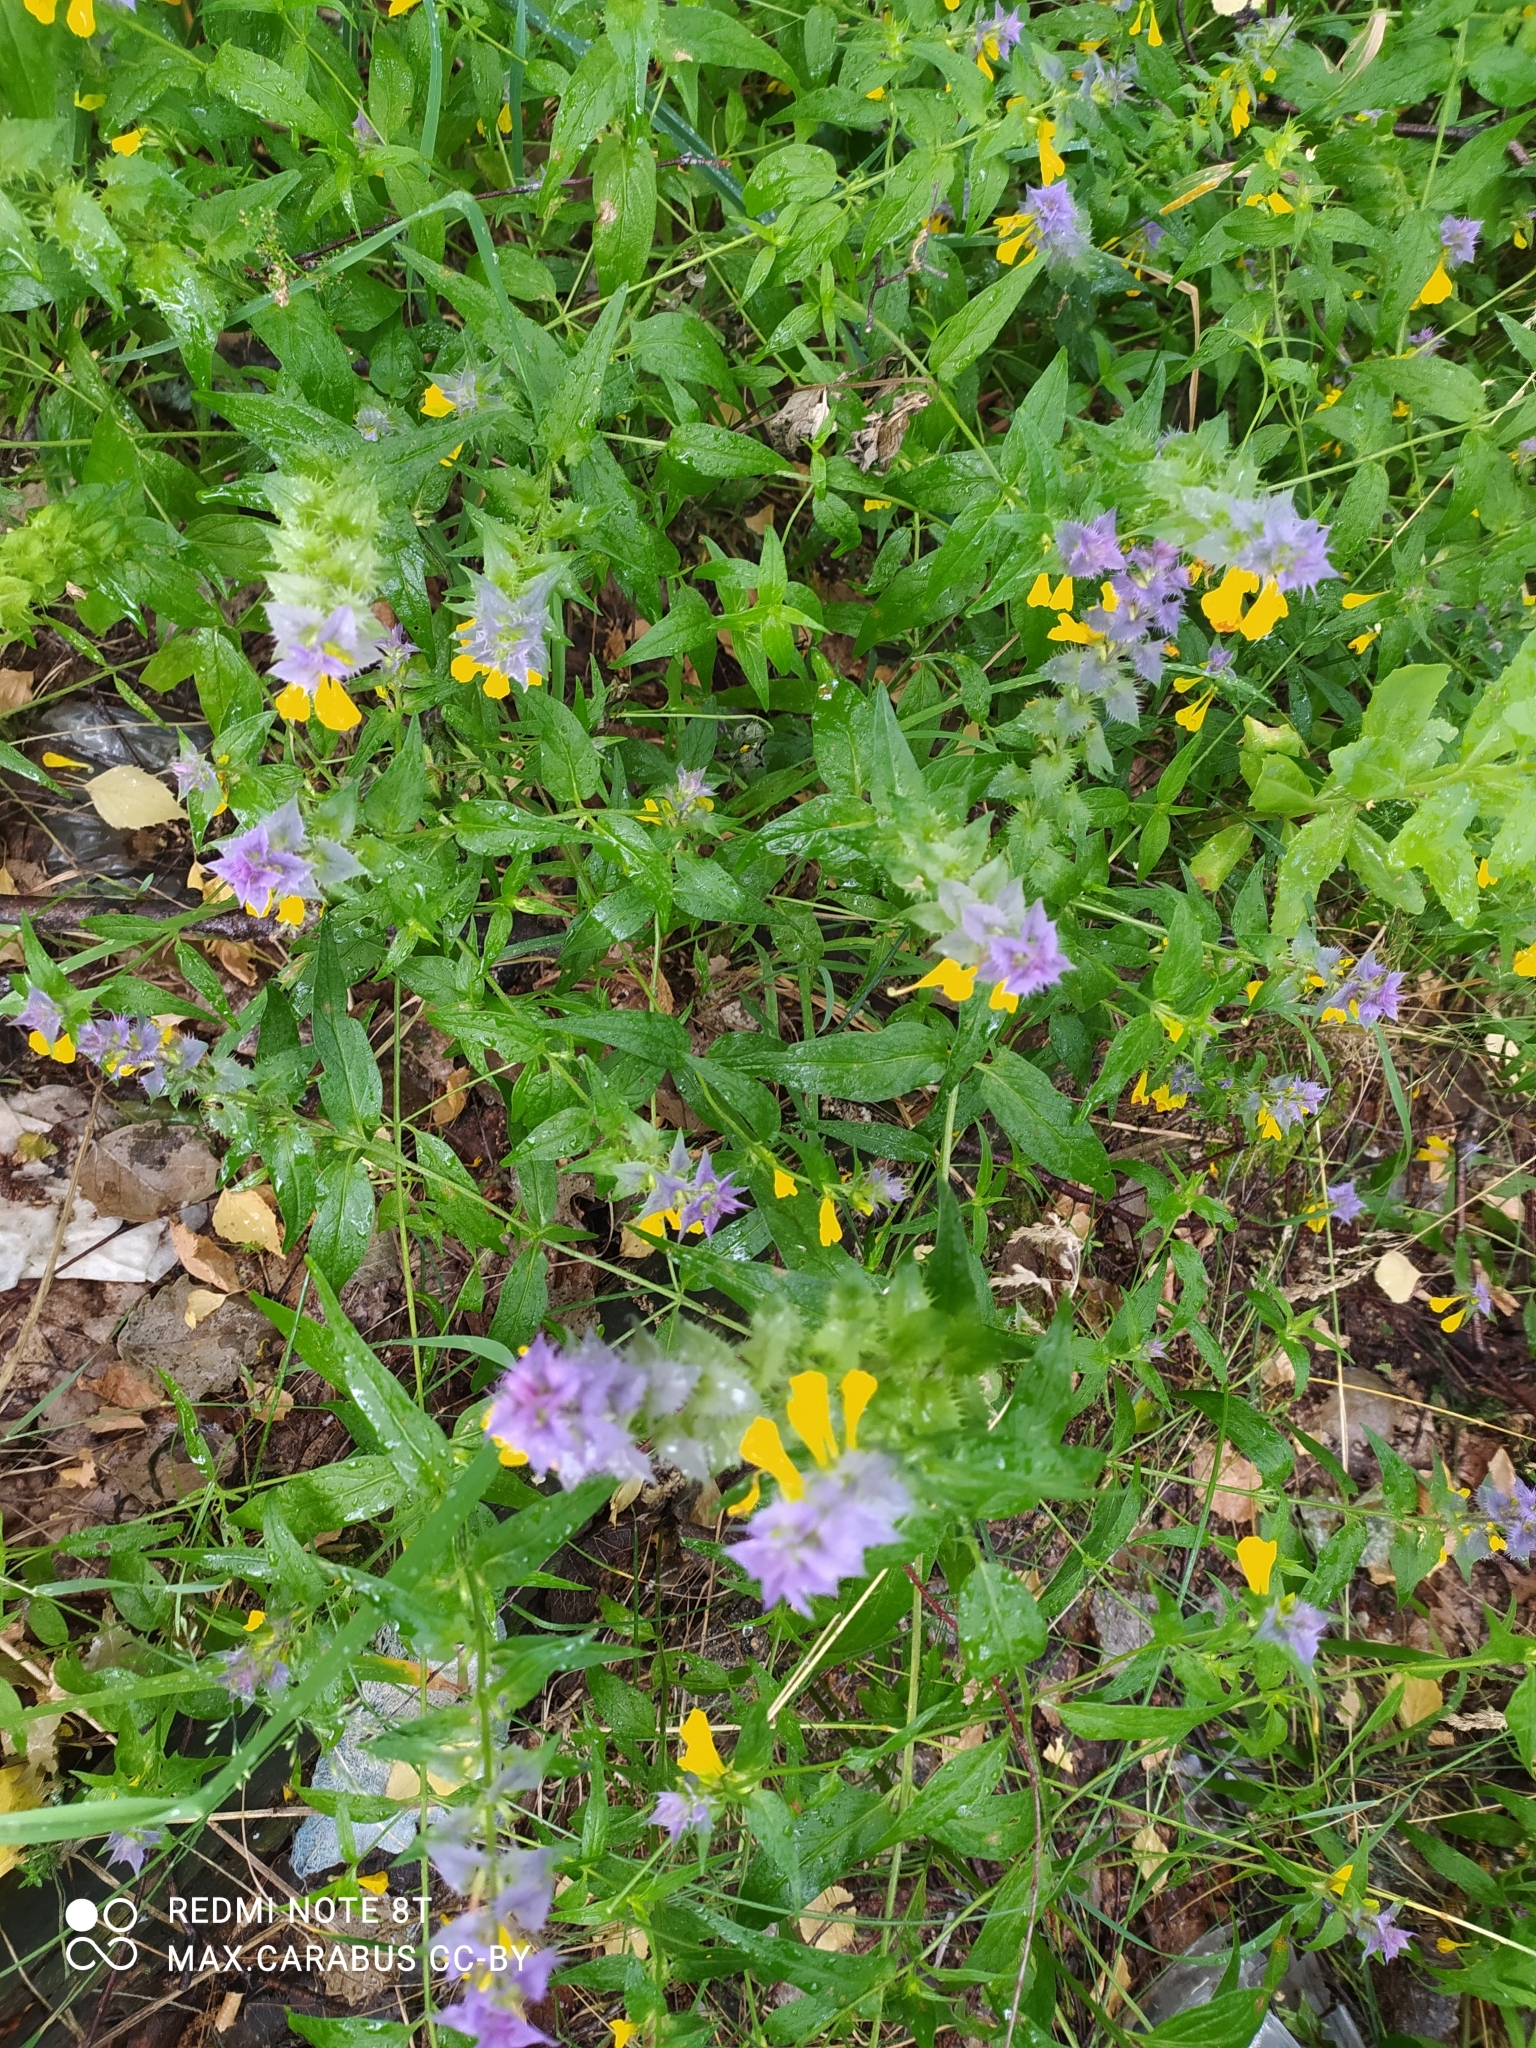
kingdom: Plantae
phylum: Tracheophyta
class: Magnoliopsida
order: Lamiales
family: Orobanchaceae
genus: Melampyrum
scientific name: Melampyrum nemorosum
